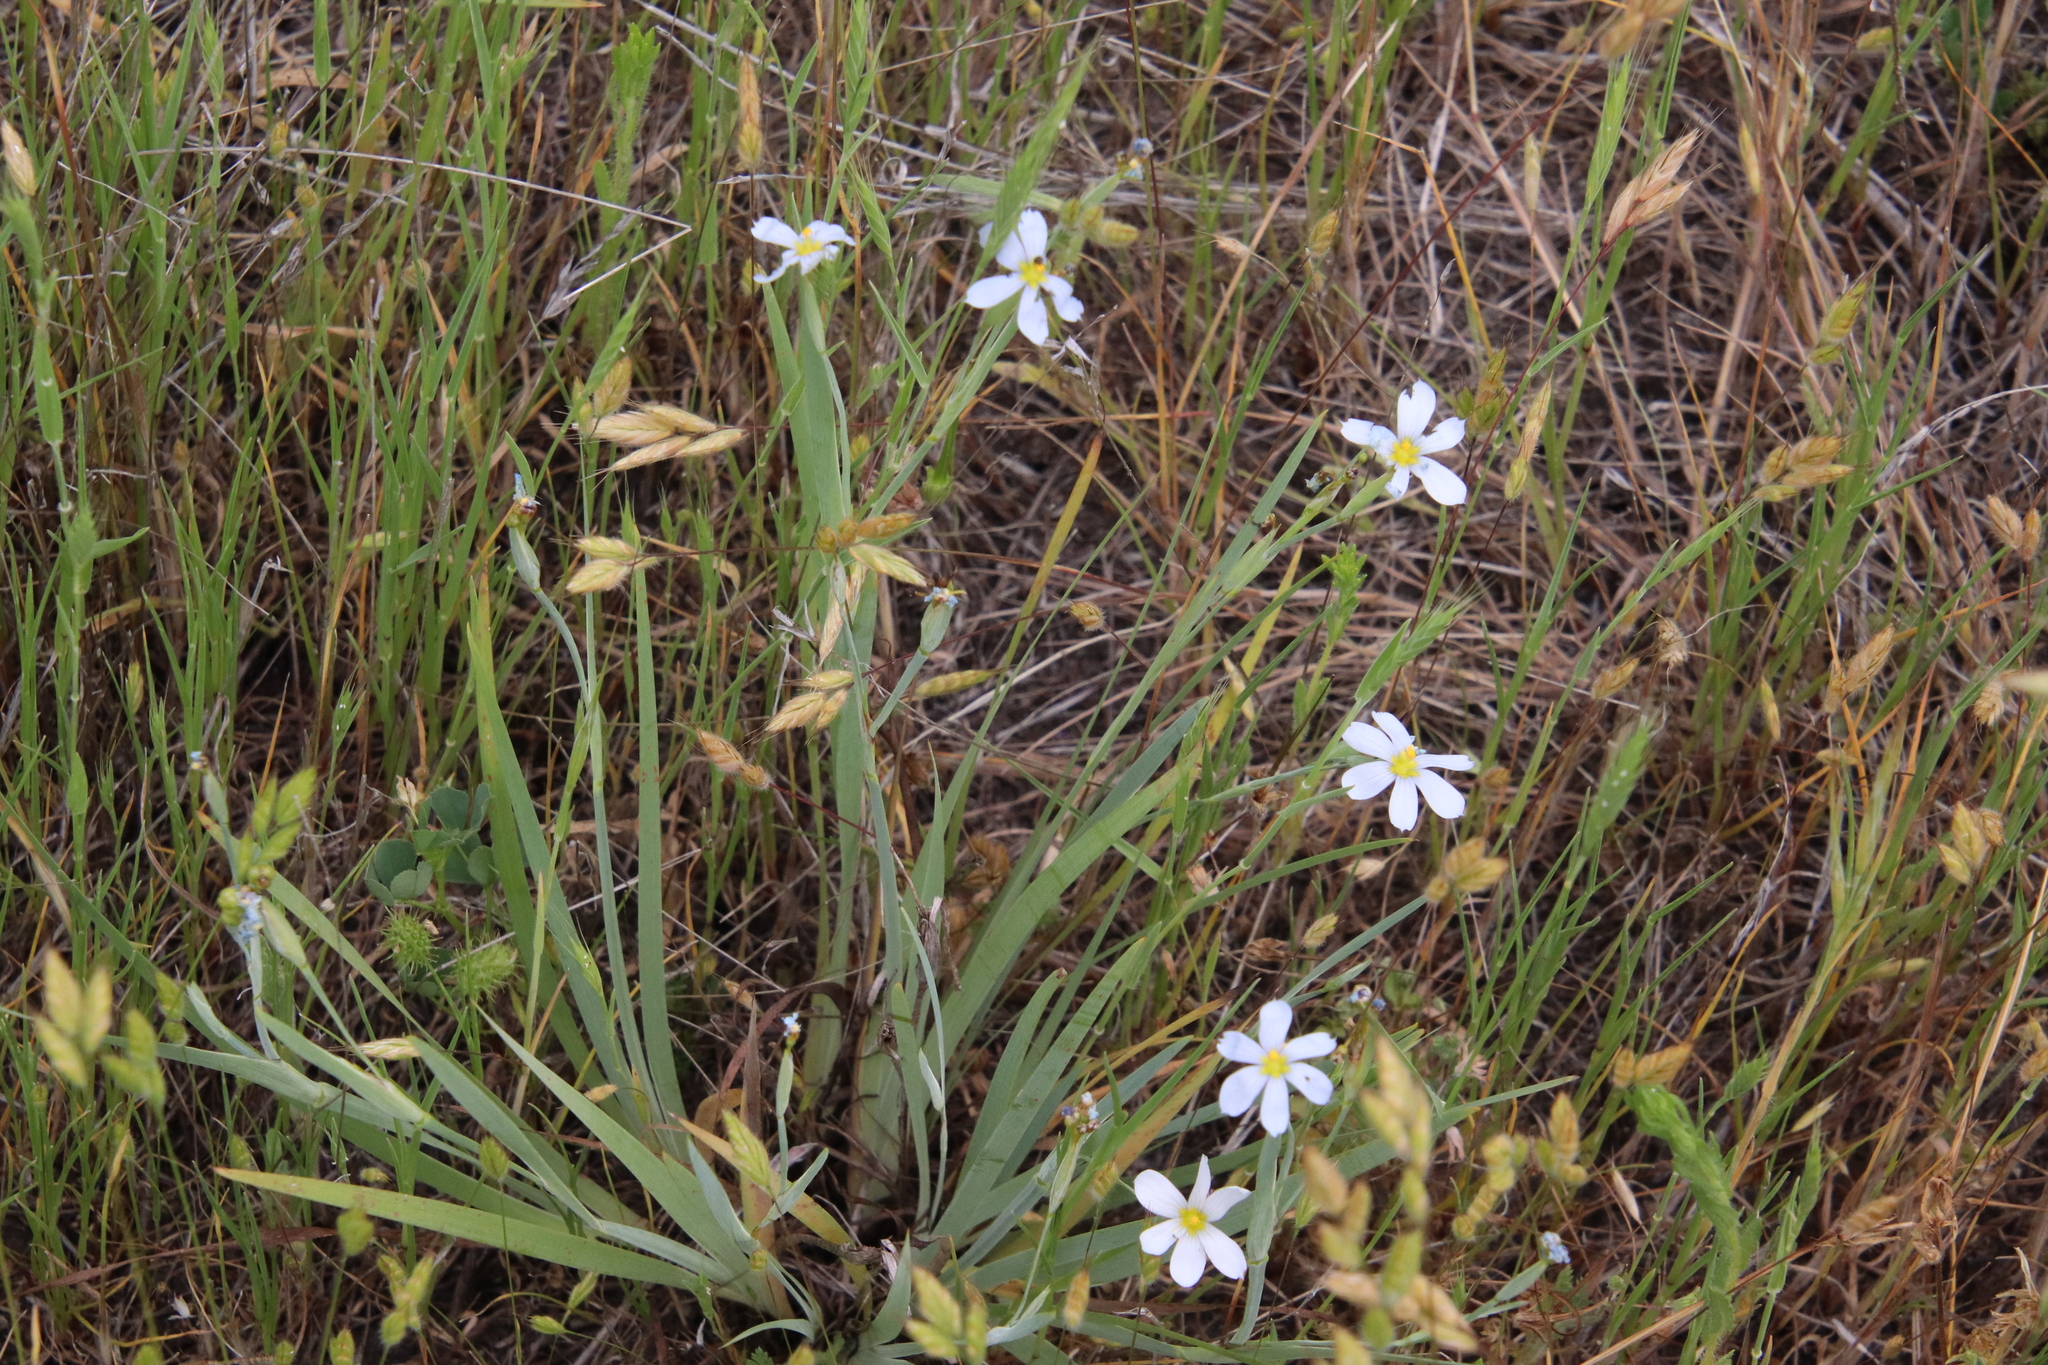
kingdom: Plantae
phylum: Tracheophyta
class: Liliopsida
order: Asparagales
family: Iridaceae
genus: Sisyrinchium
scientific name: Sisyrinchium bellum
